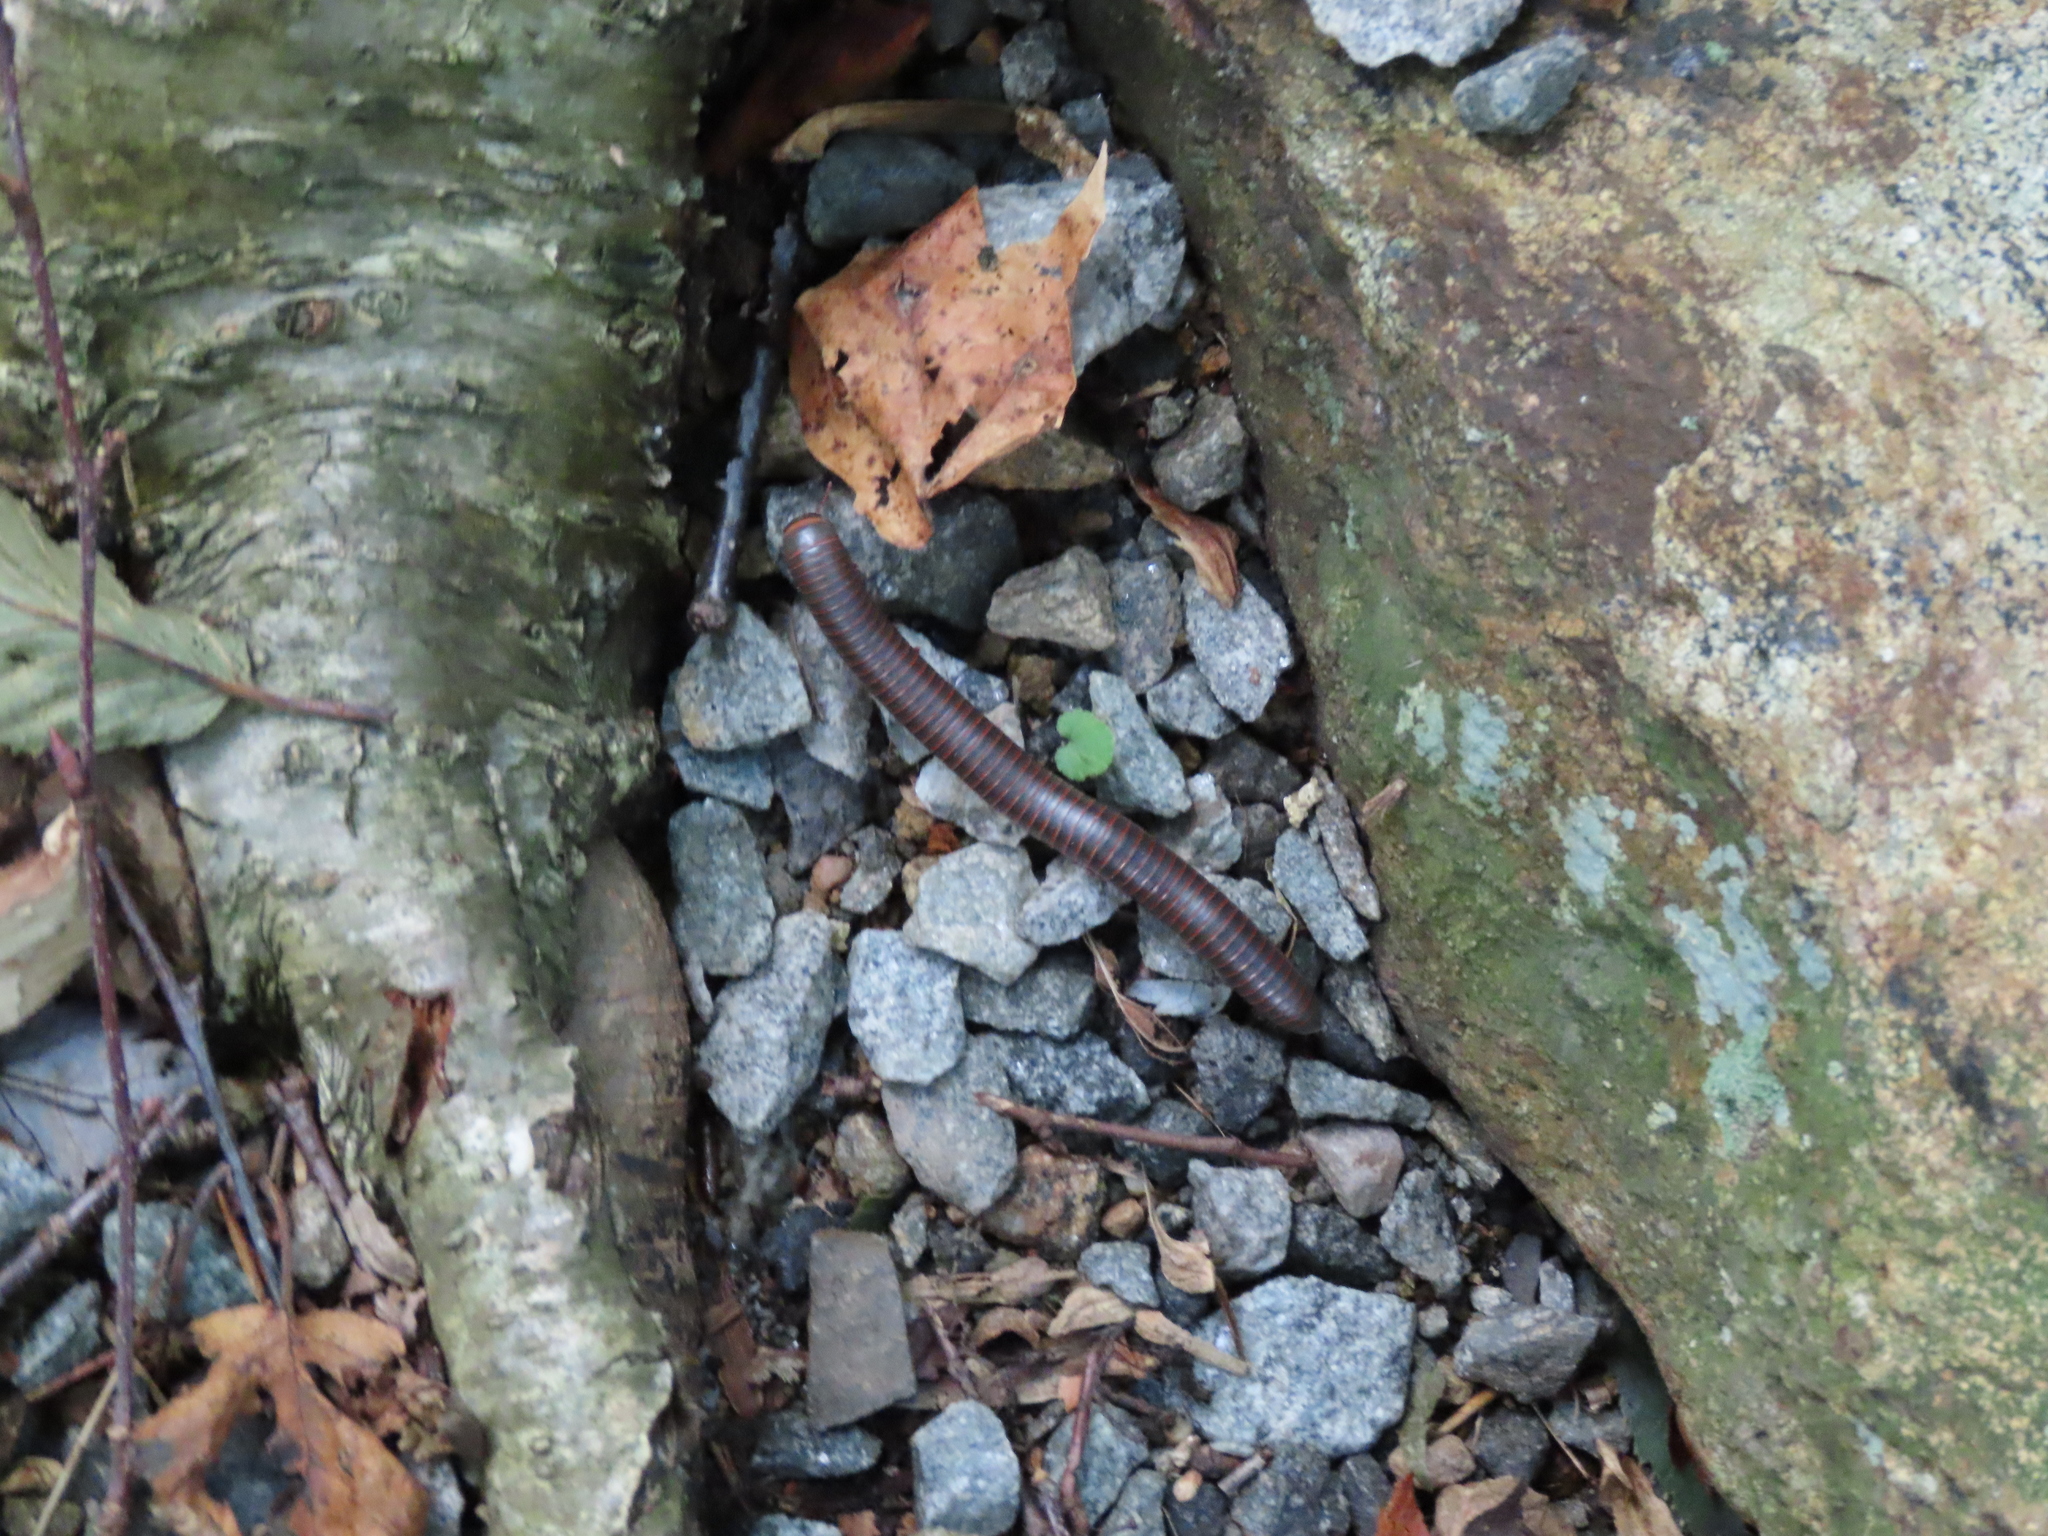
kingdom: Animalia
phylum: Arthropoda
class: Diplopoda
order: Spirobolida
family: Spirobolidae
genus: Narceus
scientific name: Narceus
